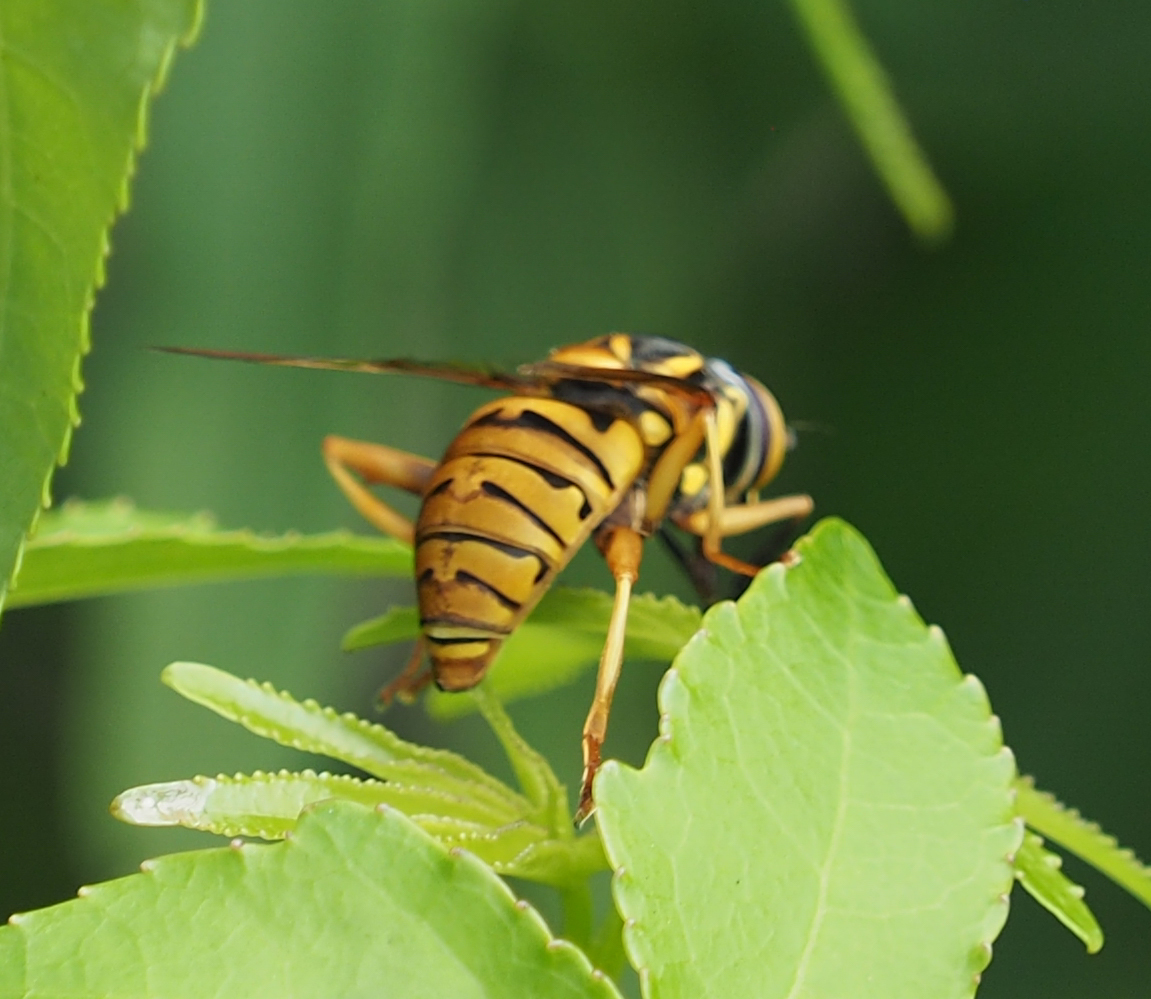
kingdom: Animalia
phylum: Arthropoda
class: Insecta
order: Diptera
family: Syrphidae
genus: Spilomyia
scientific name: Spilomyia
